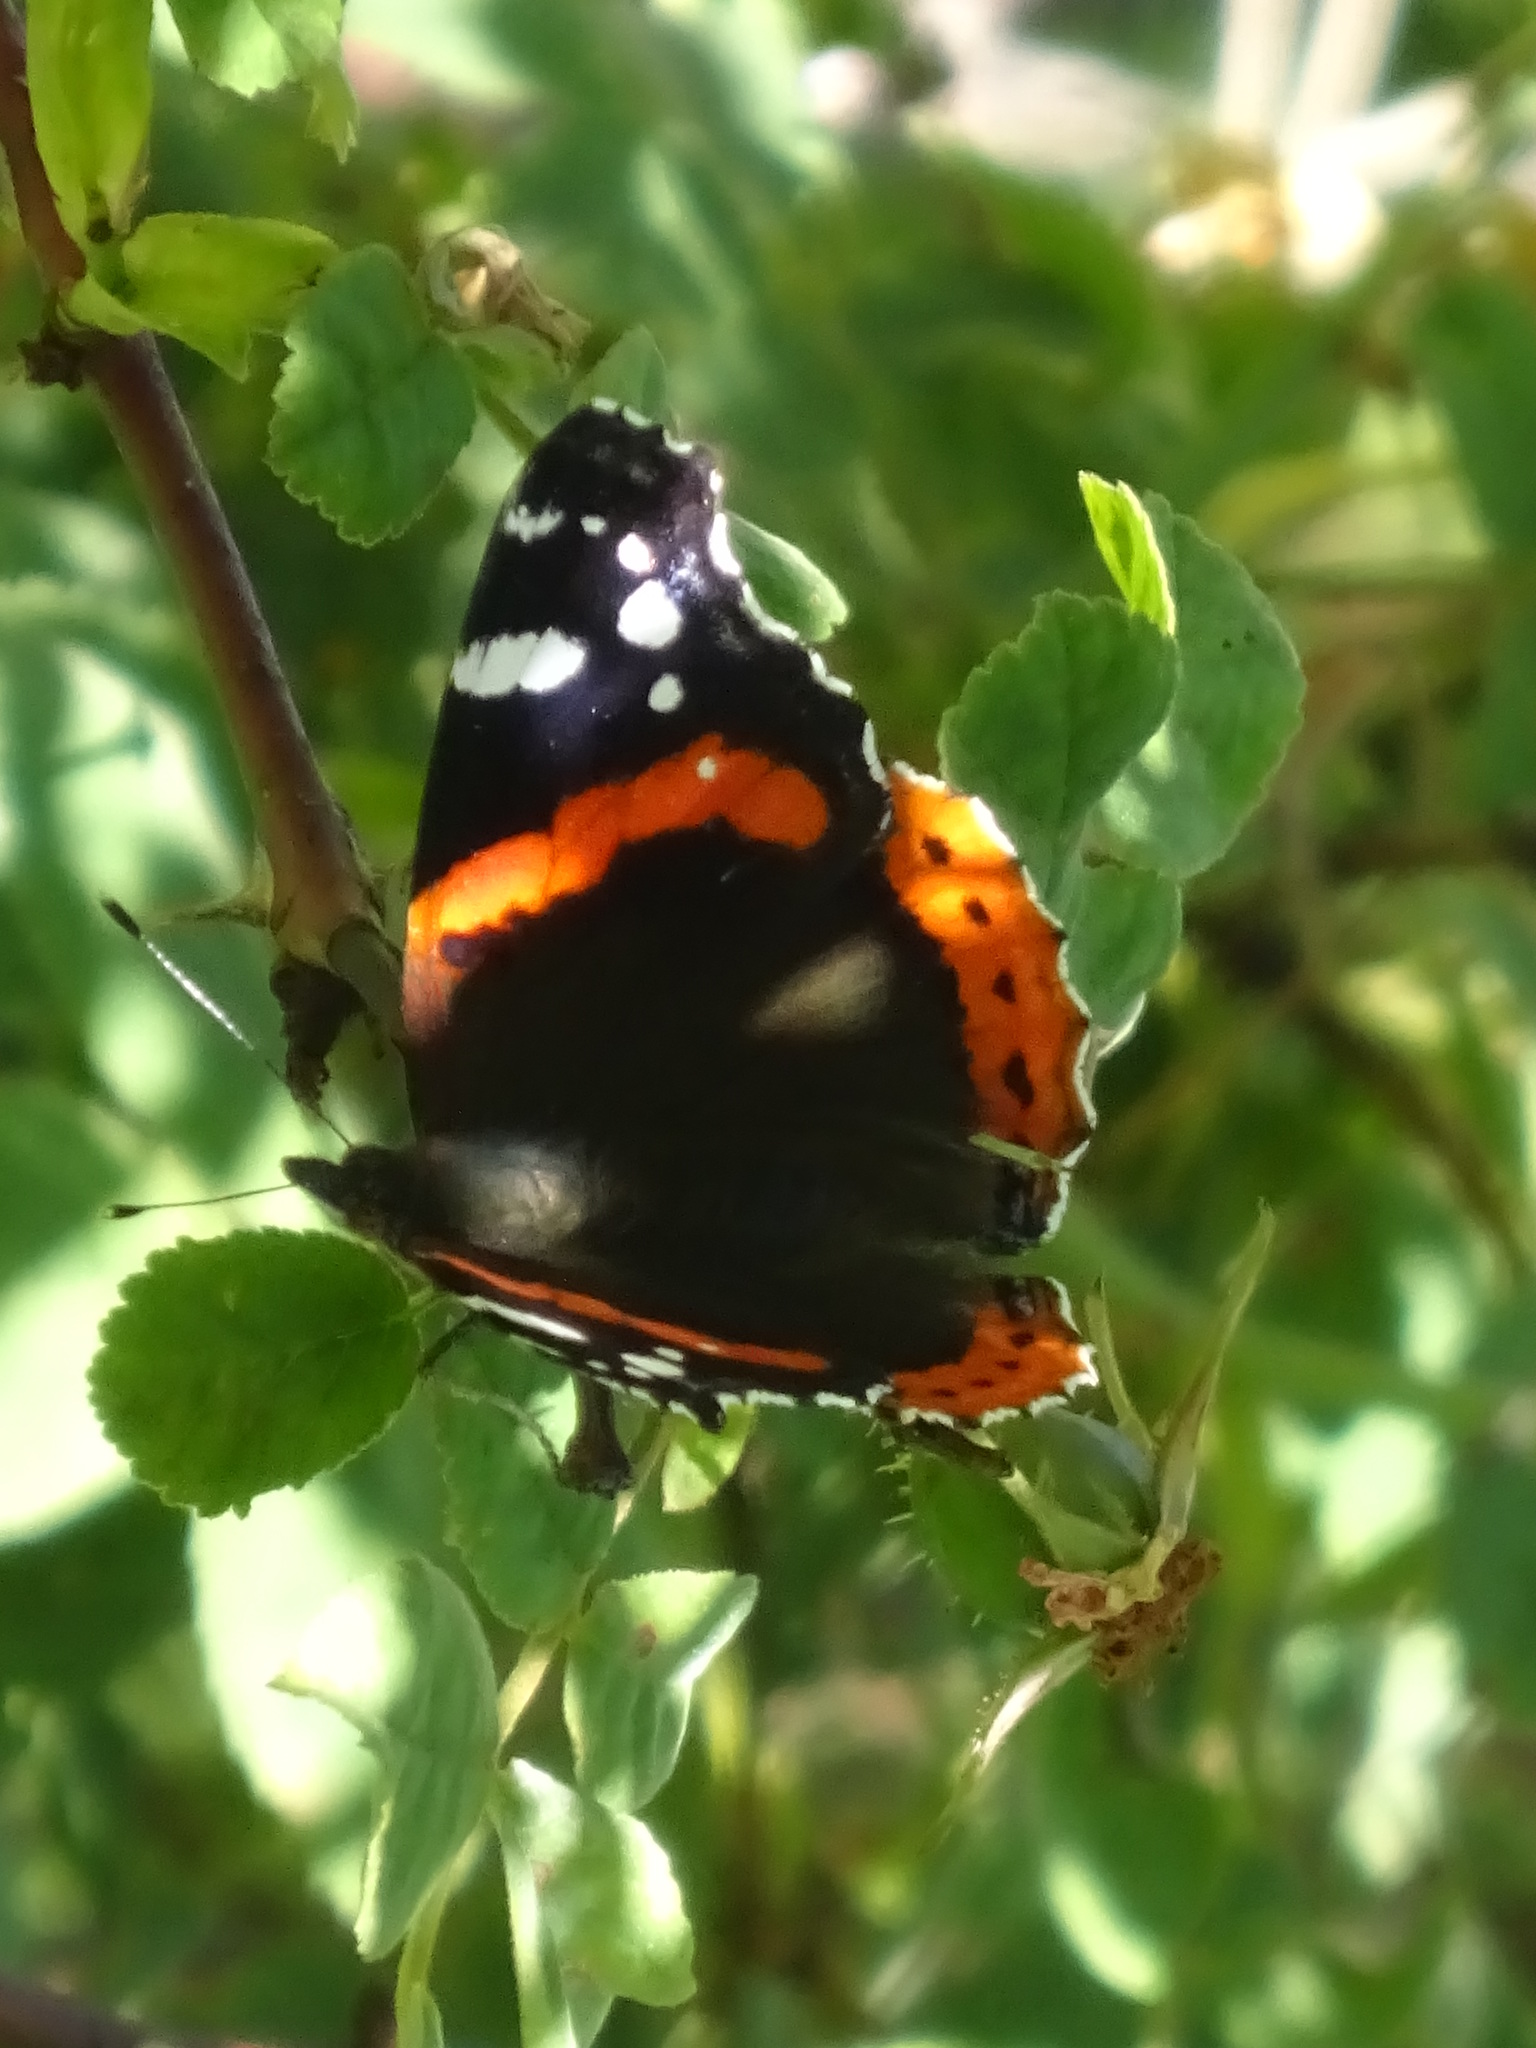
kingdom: Animalia
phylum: Arthropoda
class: Insecta
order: Lepidoptera
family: Nymphalidae
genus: Vanessa
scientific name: Vanessa atalanta
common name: Red admiral
